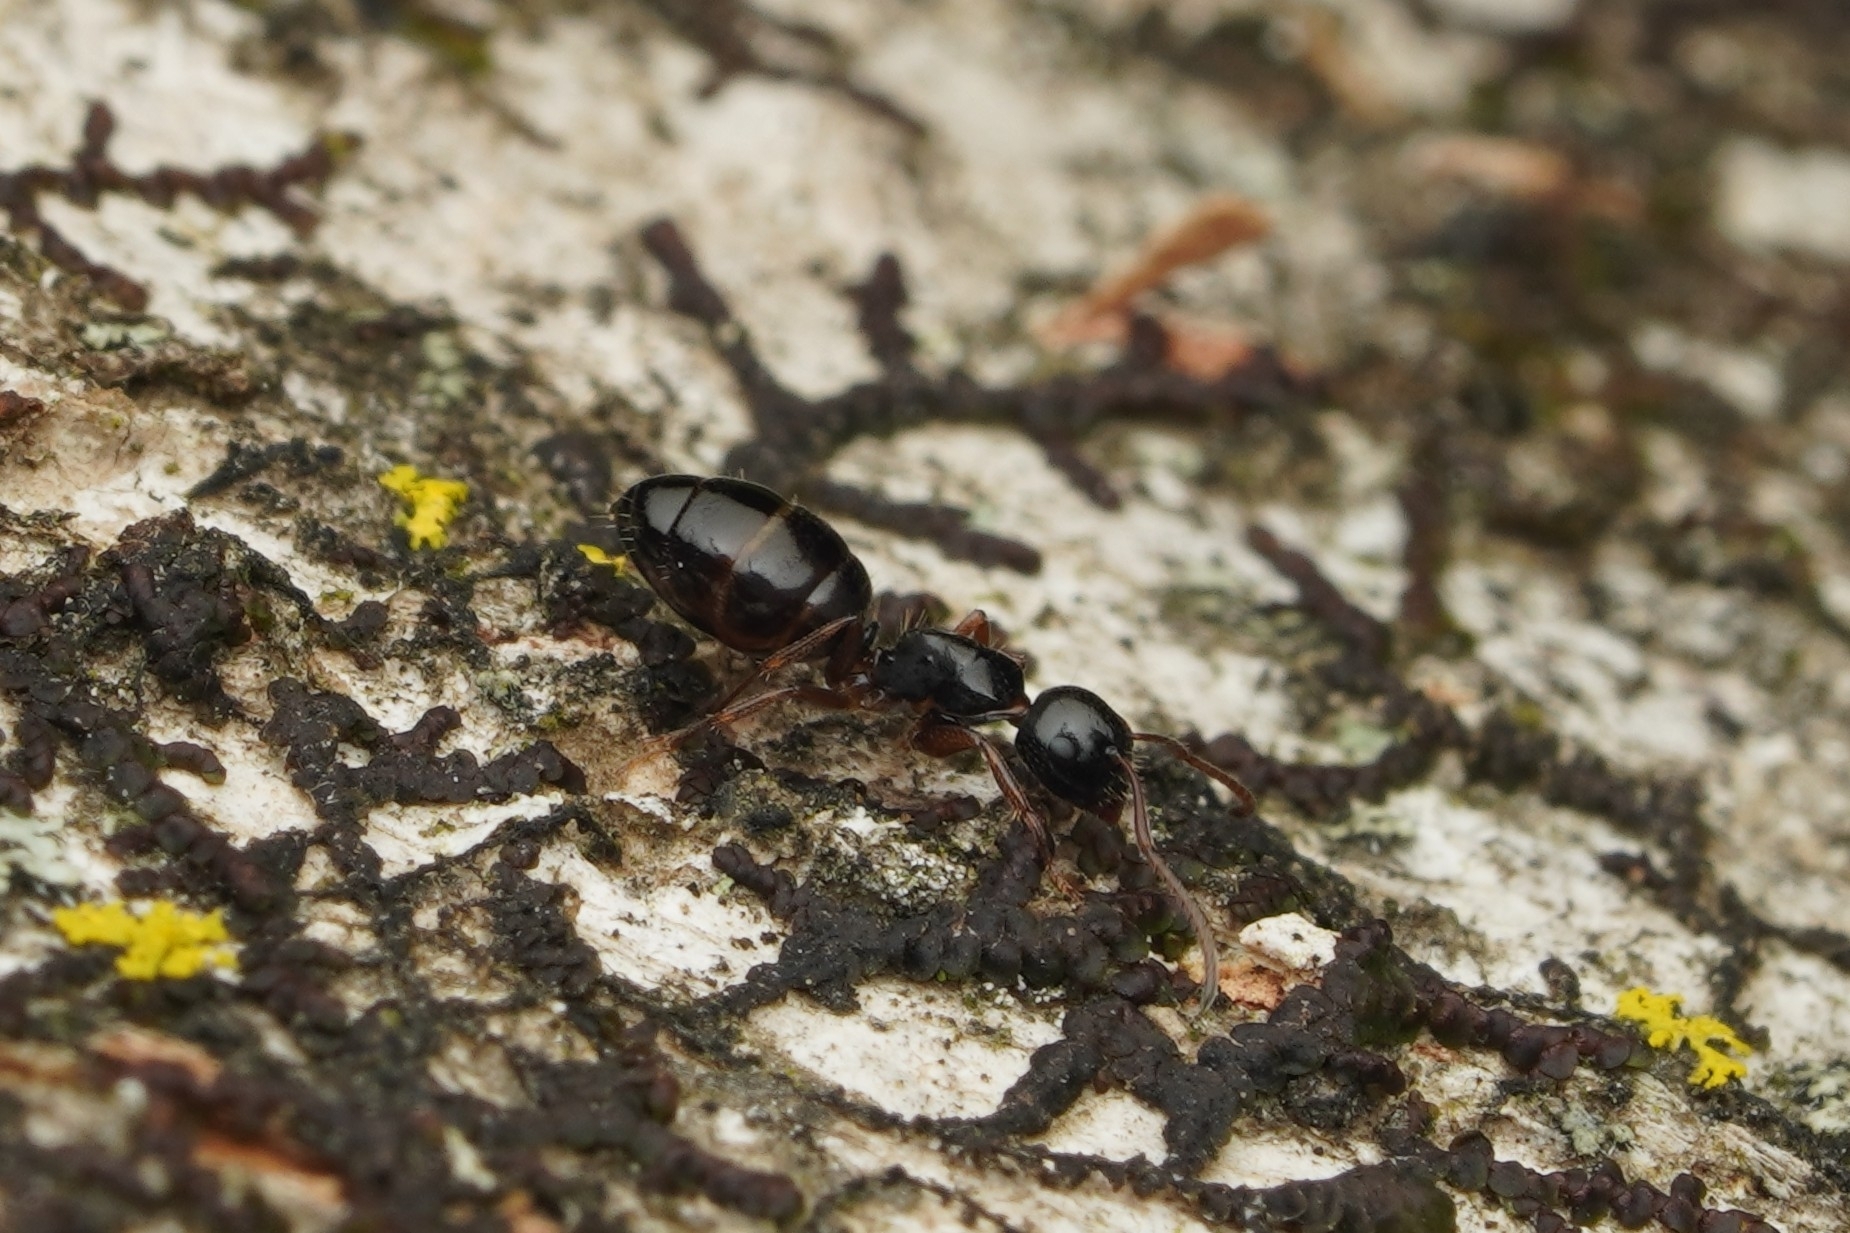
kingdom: Animalia
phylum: Arthropoda
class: Insecta
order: Hymenoptera
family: Formicidae
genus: Camponotus
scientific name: Camponotus itoi
